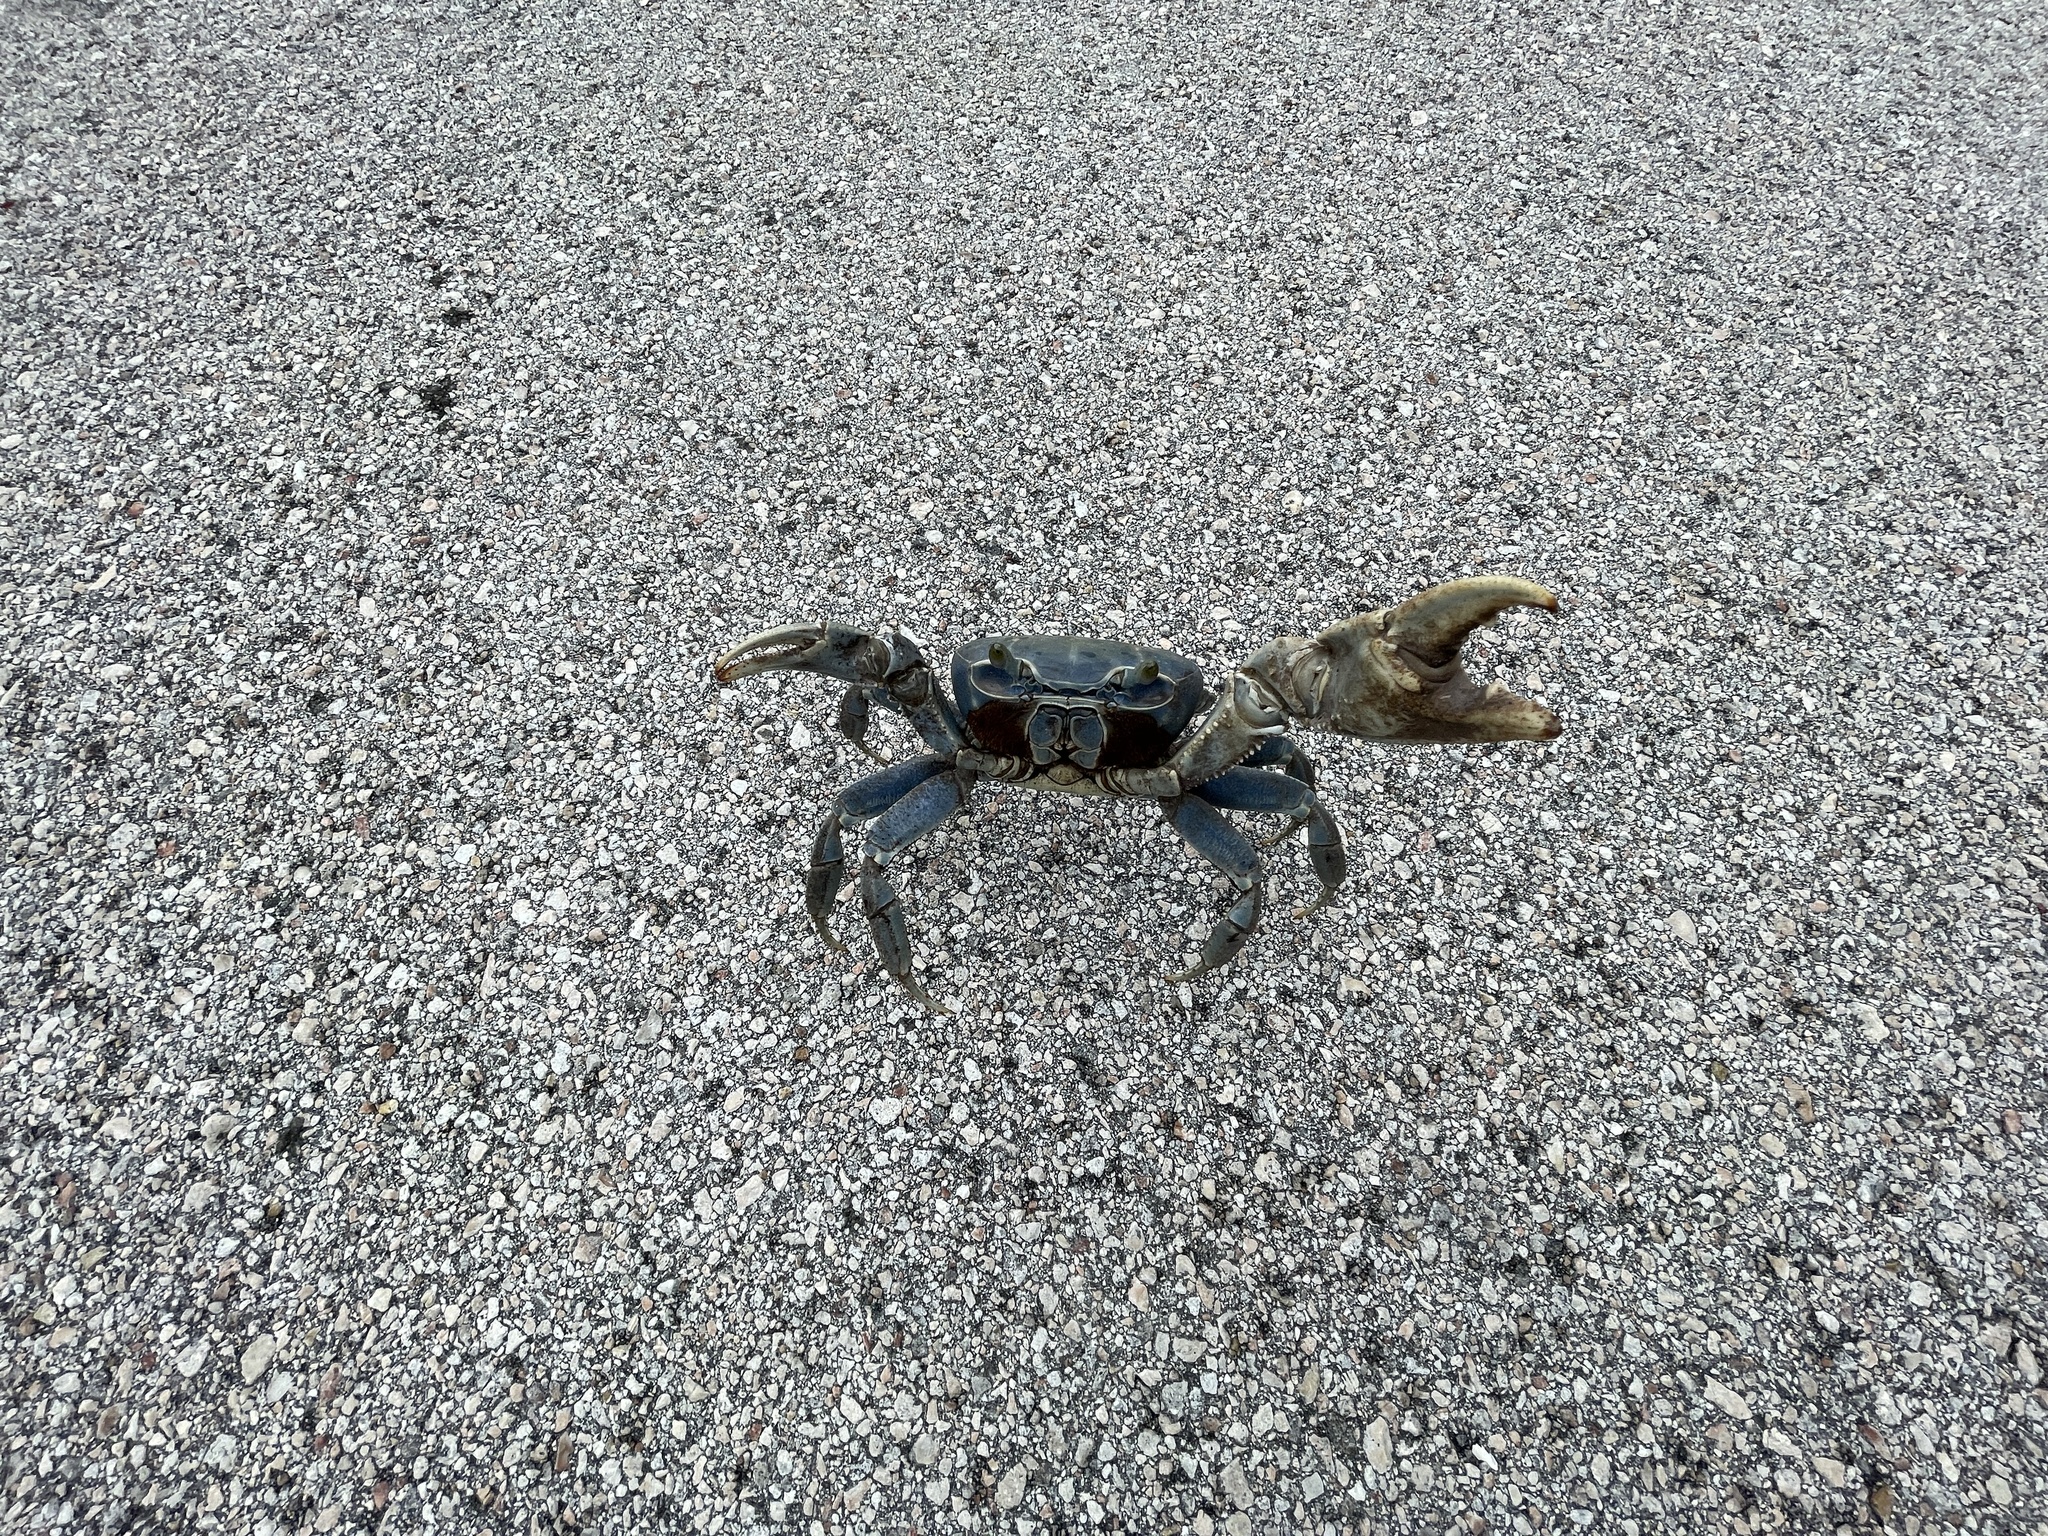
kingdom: Animalia
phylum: Arthropoda
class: Malacostraca
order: Decapoda
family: Gecarcinidae
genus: Cardisoma
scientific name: Cardisoma guanhumi
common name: Great land crab
